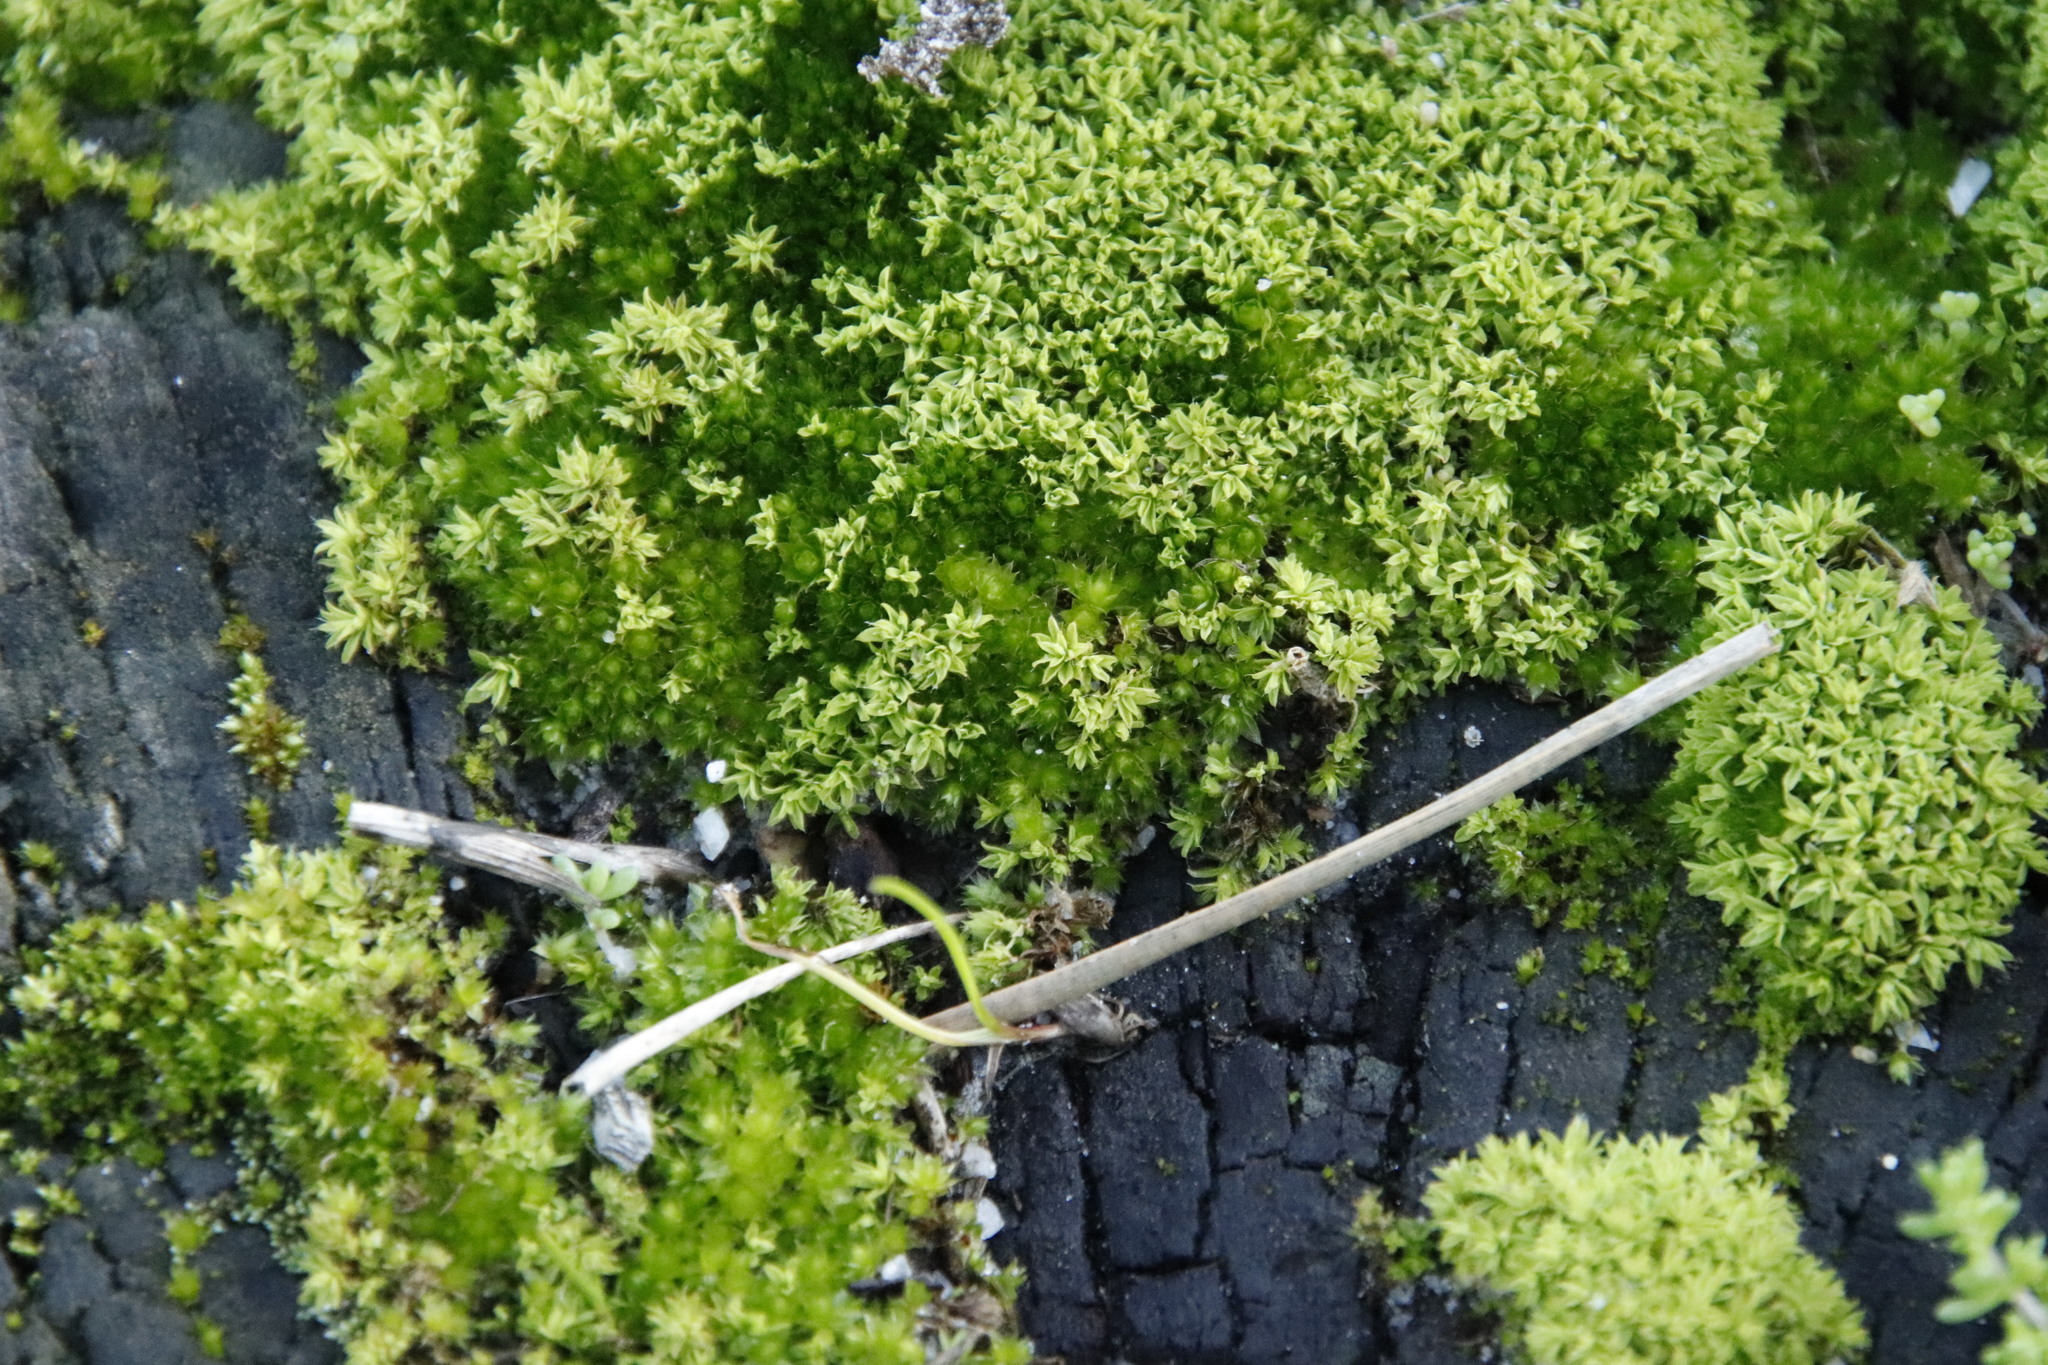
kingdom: Plantae
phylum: Bryophyta
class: Bryopsida
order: Pottiales
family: Pottiaceae
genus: Pseudocrossidium
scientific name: Pseudocrossidium crinitum
